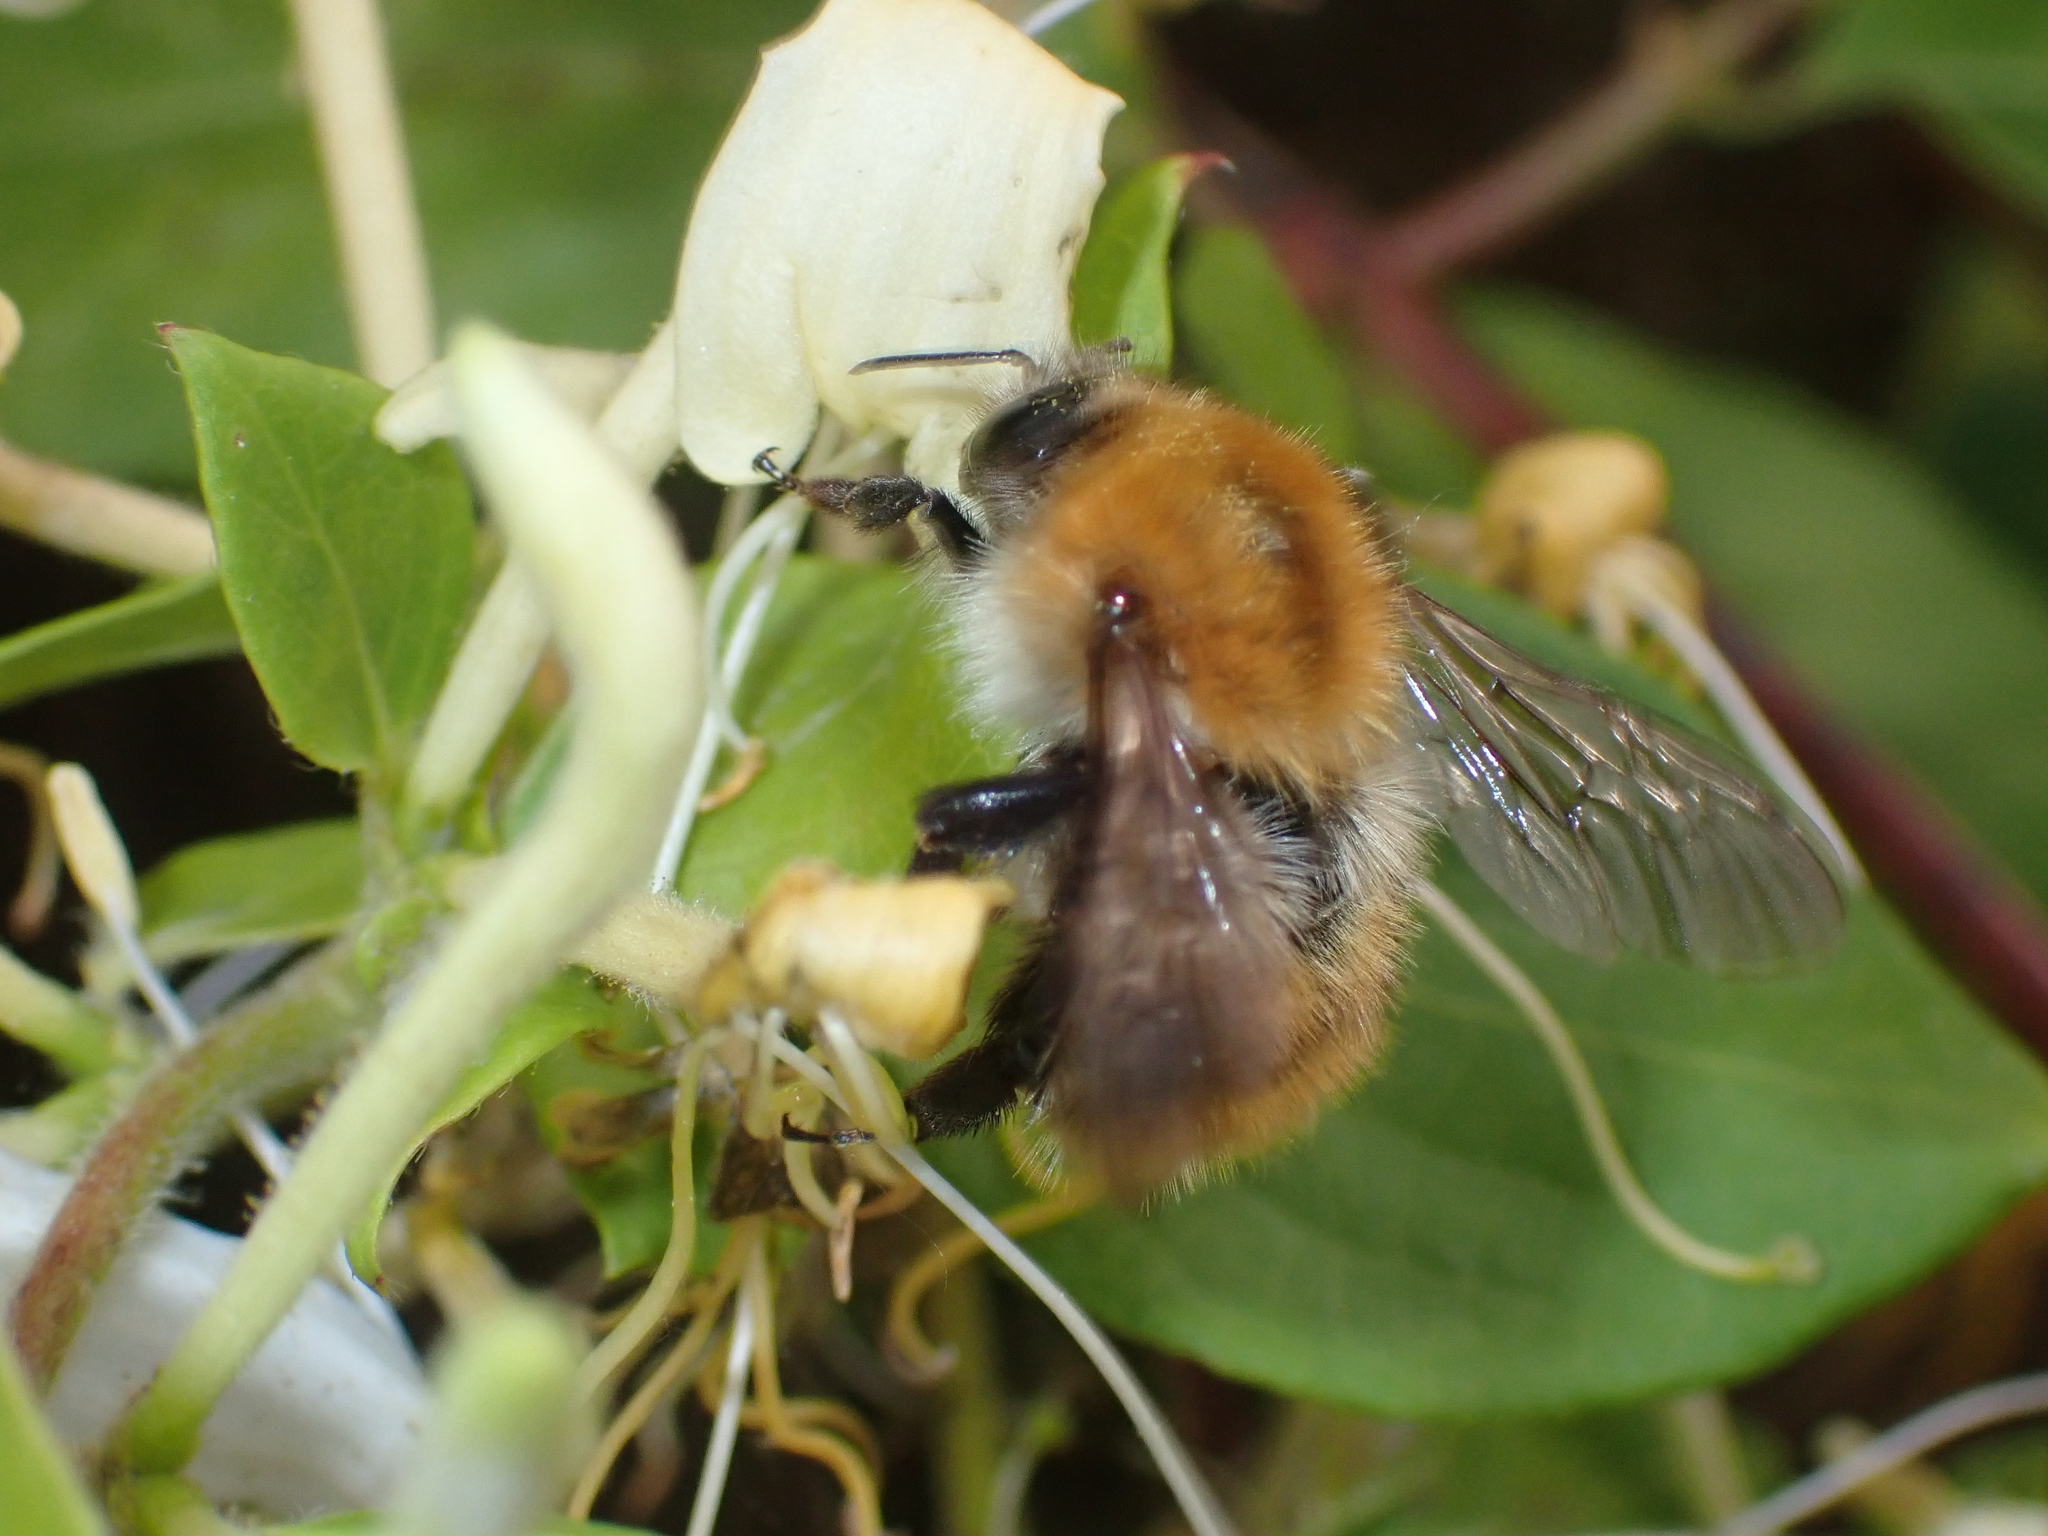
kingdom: Animalia
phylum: Arthropoda
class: Insecta
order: Hymenoptera
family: Apidae
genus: Bombus
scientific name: Bombus pascuorum
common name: Common carder bee
